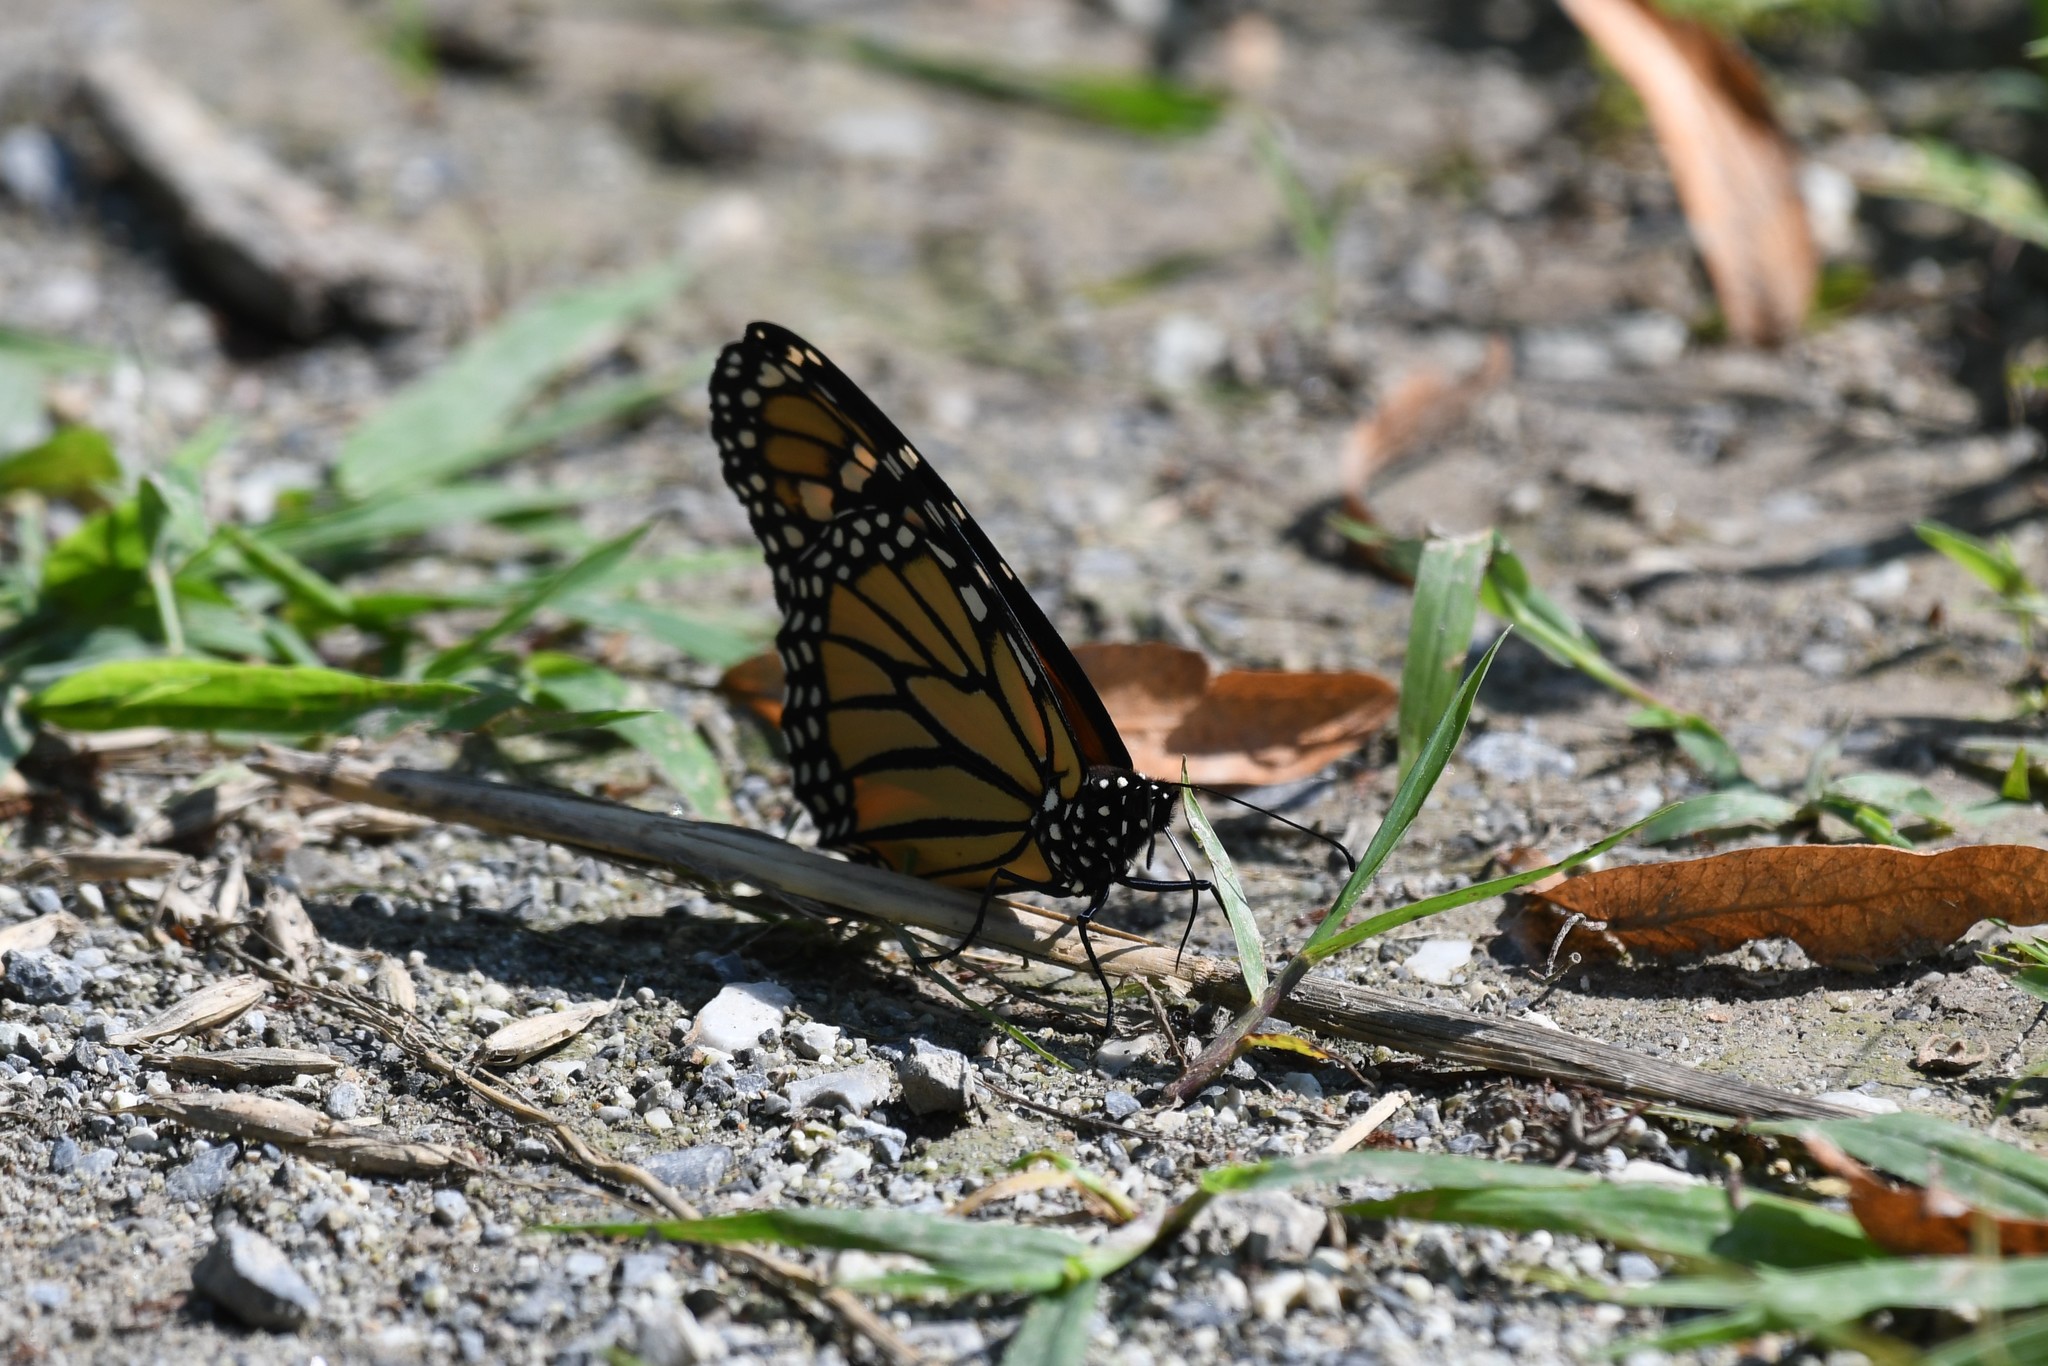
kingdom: Animalia
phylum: Arthropoda
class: Insecta
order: Lepidoptera
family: Nymphalidae
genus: Danaus
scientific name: Danaus plexippus
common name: Monarch
